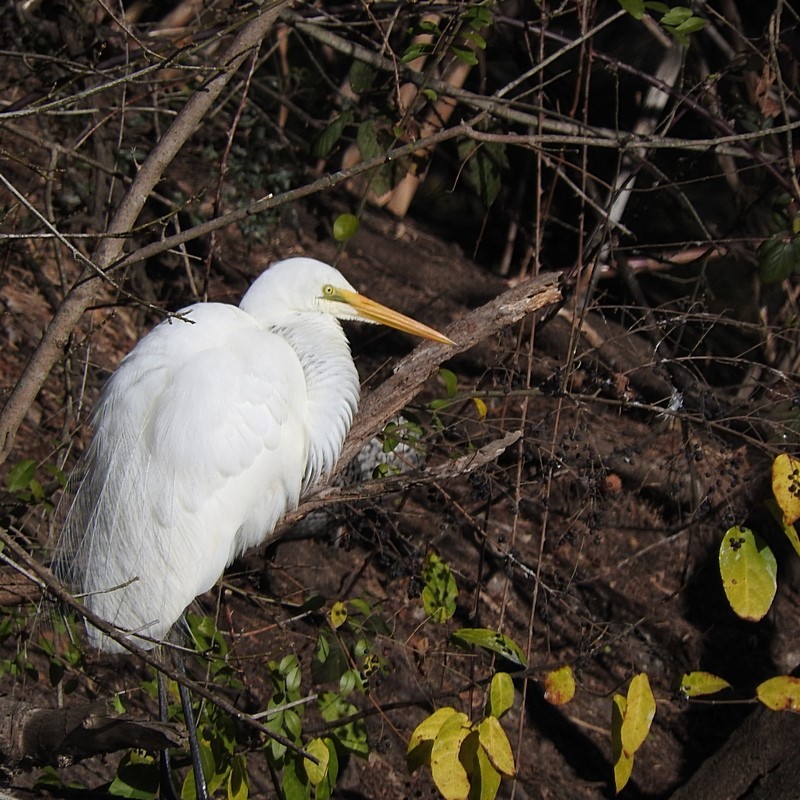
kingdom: Animalia
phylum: Chordata
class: Aves
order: Pelecaniformes
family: Ardeidae
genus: Ardea
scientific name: Ardea alba
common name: Great egret
